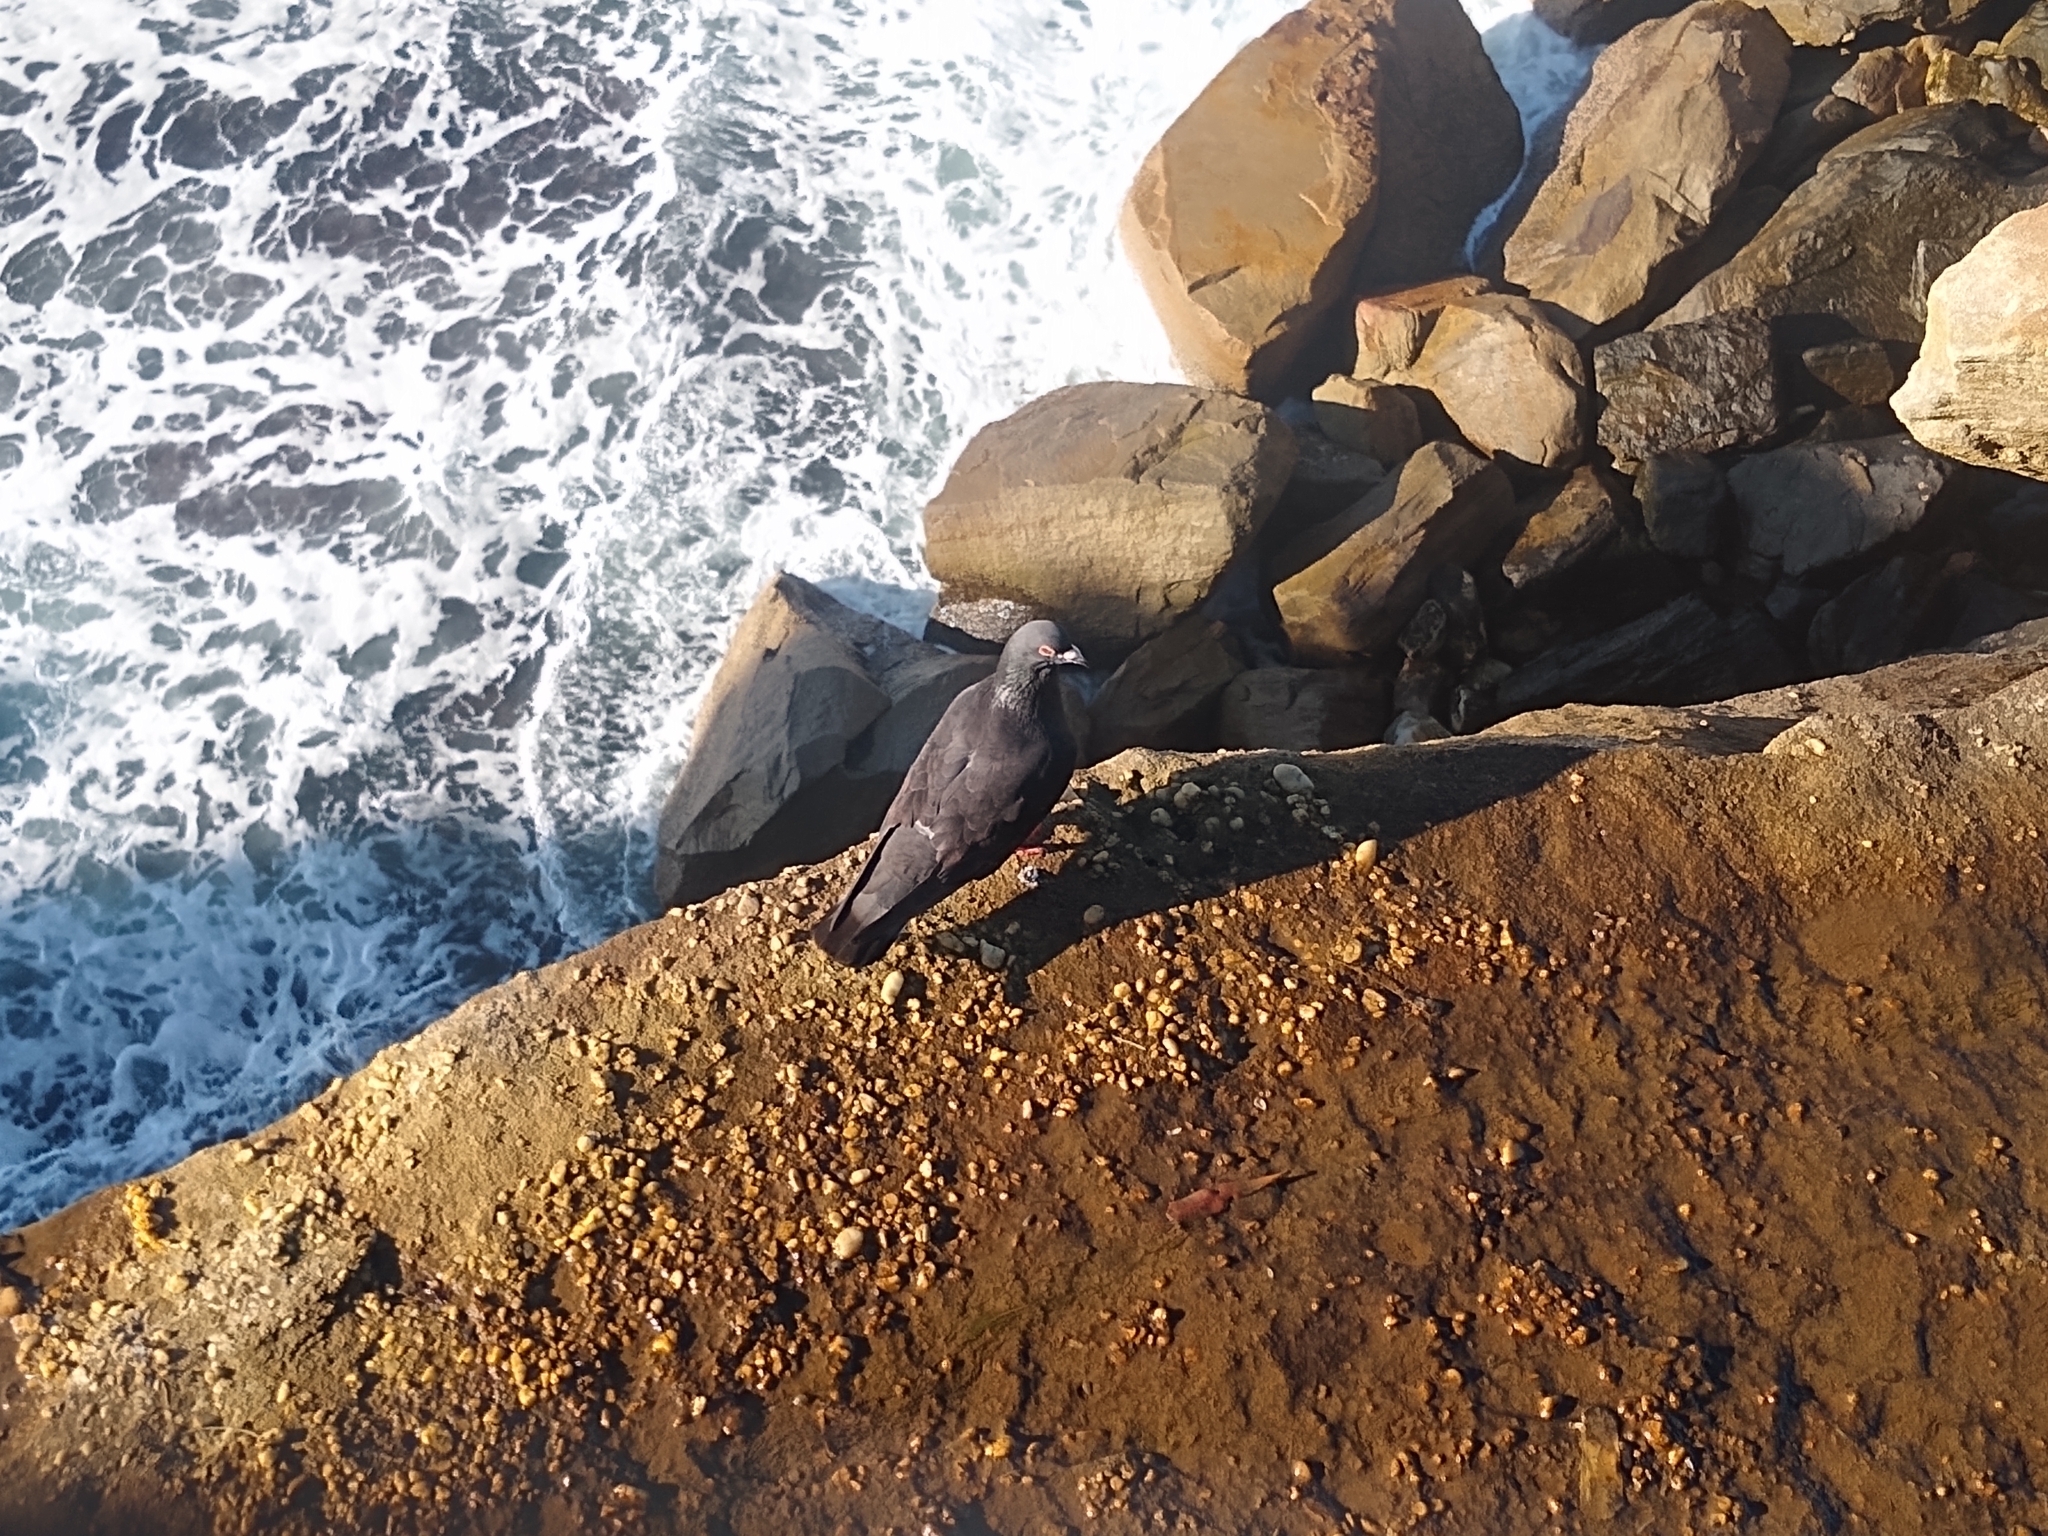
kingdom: Animalia
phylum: Chordata
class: Aves
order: Columbiformes
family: Columbidae
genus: Columba
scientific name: Columba livia
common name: Rock pigeon
